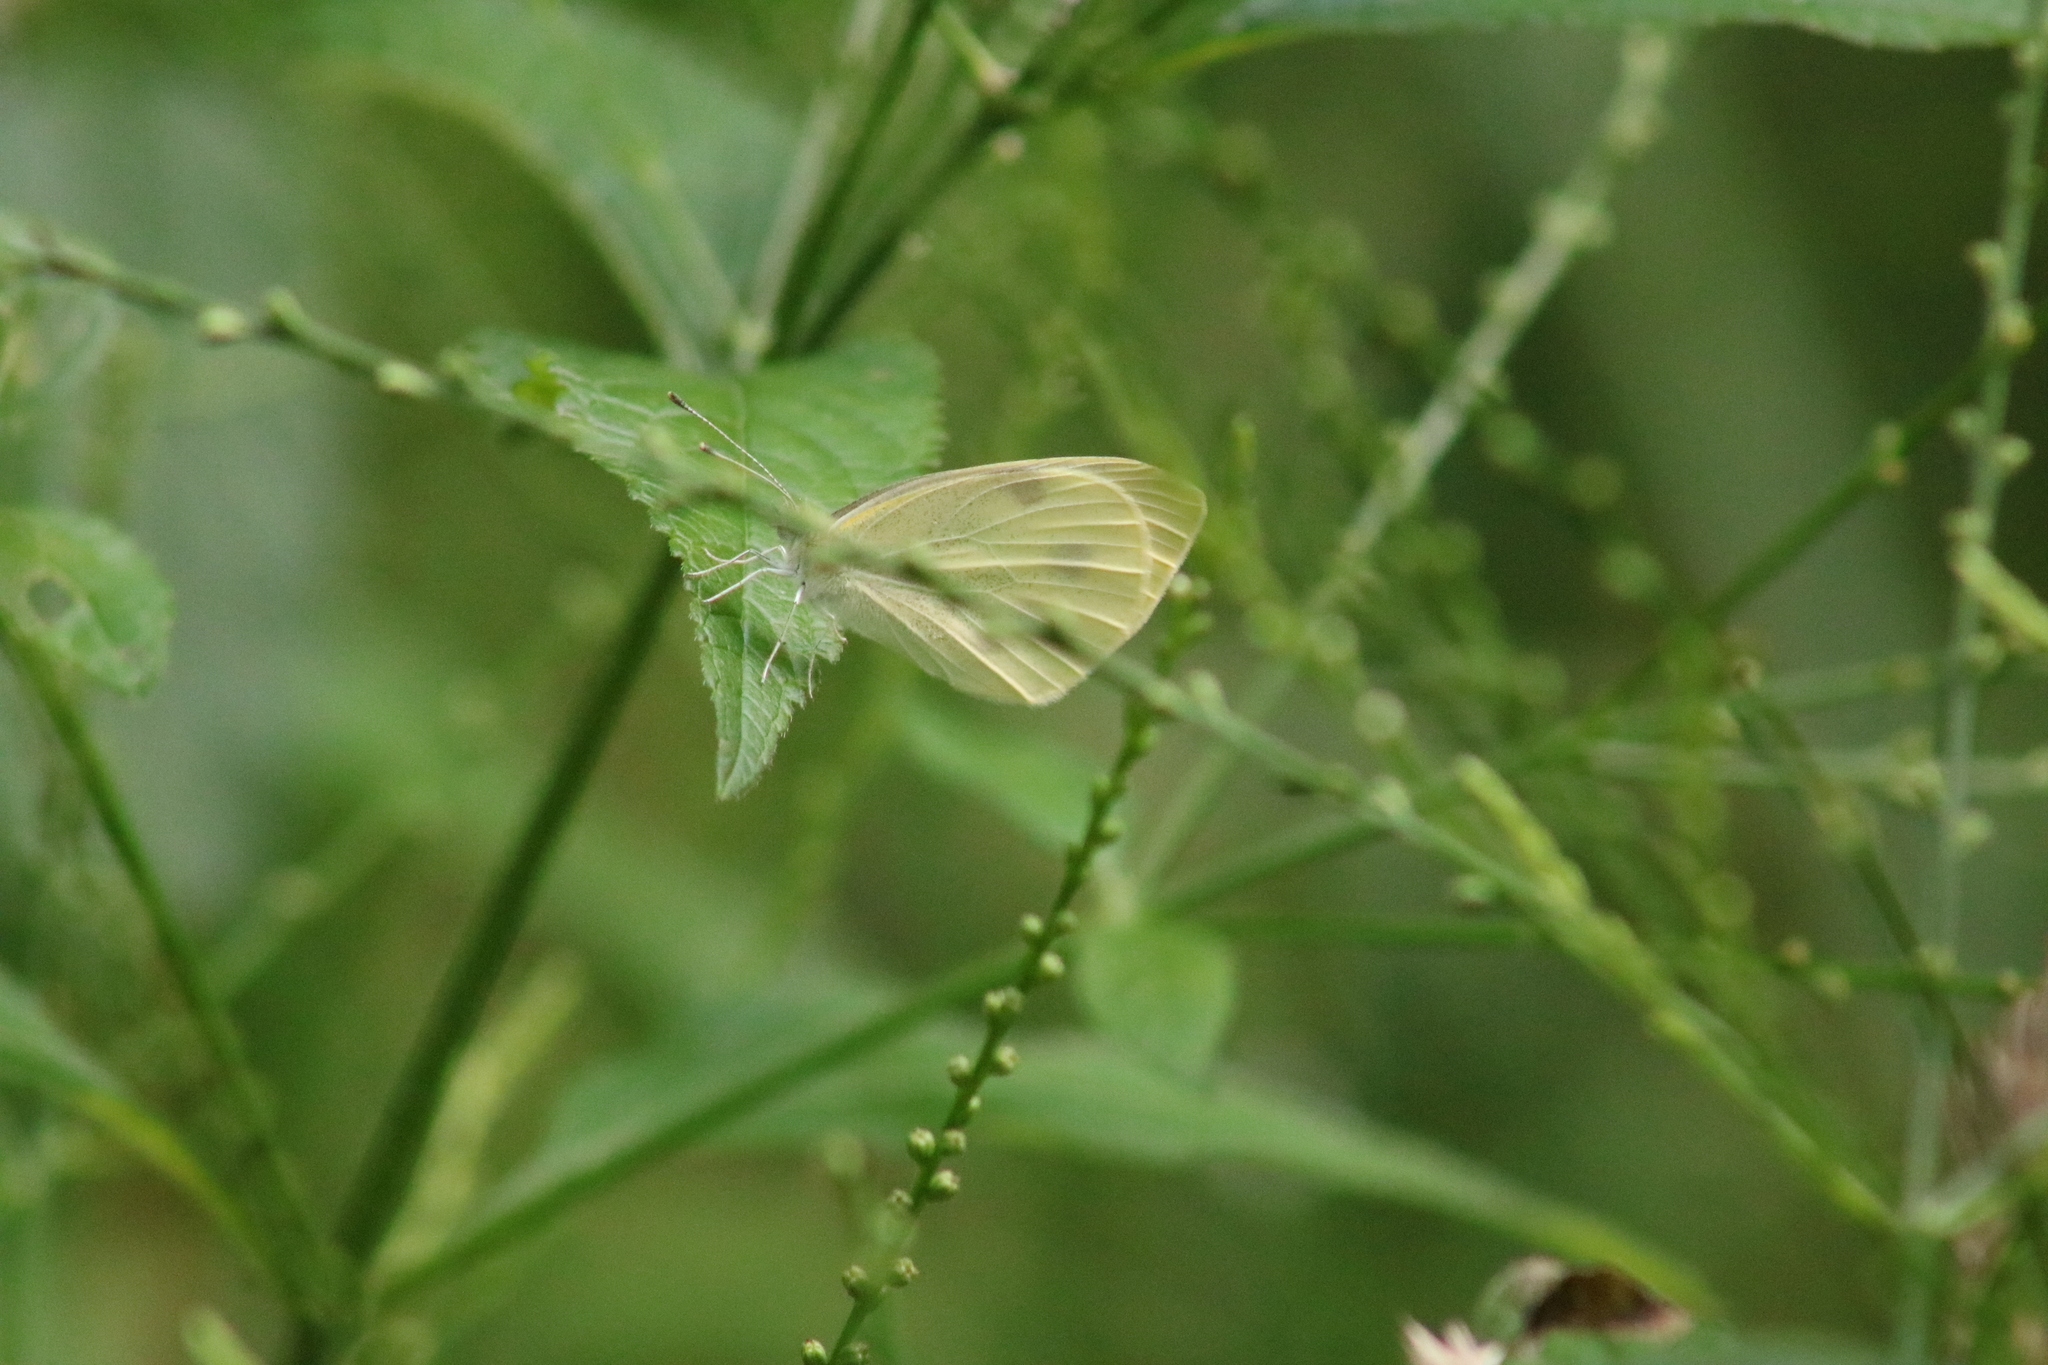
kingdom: Animalia
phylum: Arthropoda
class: Insecta
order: Lepidoptera
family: Pieridae
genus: Pieris
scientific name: Pieris rapae
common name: Small white
